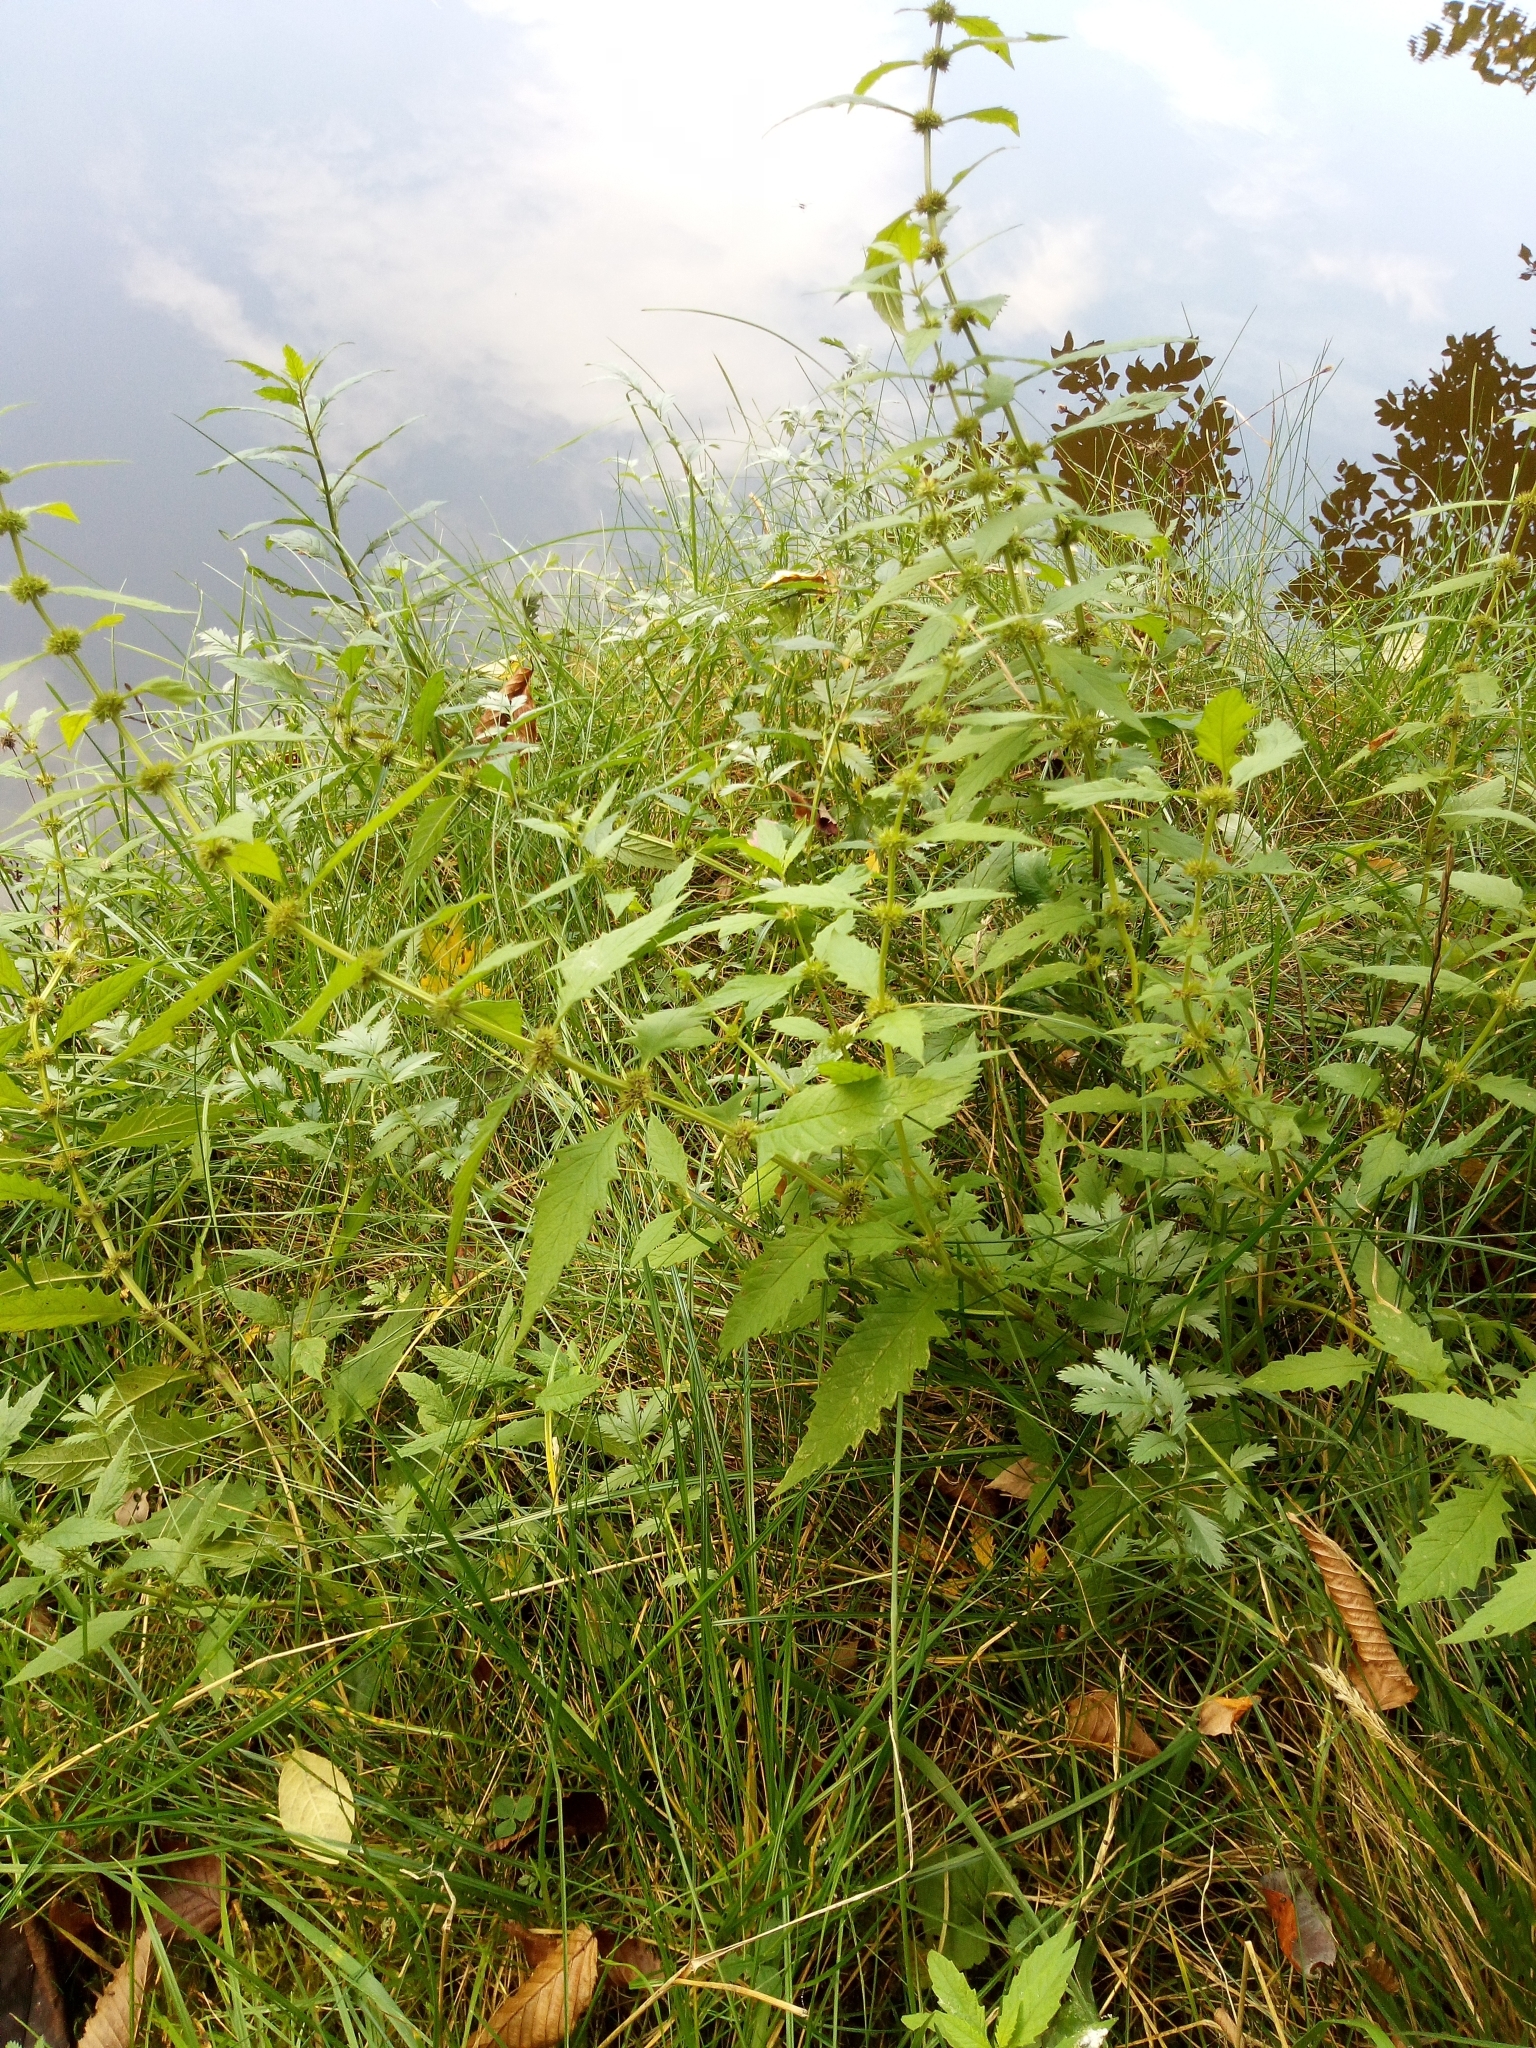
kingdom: Plantae
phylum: Tracheophyta
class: Magnoliopsida
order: Lamiales
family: Lamiaceae
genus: Lycopus
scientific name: Lycopus europaeus
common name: European bugleweed
